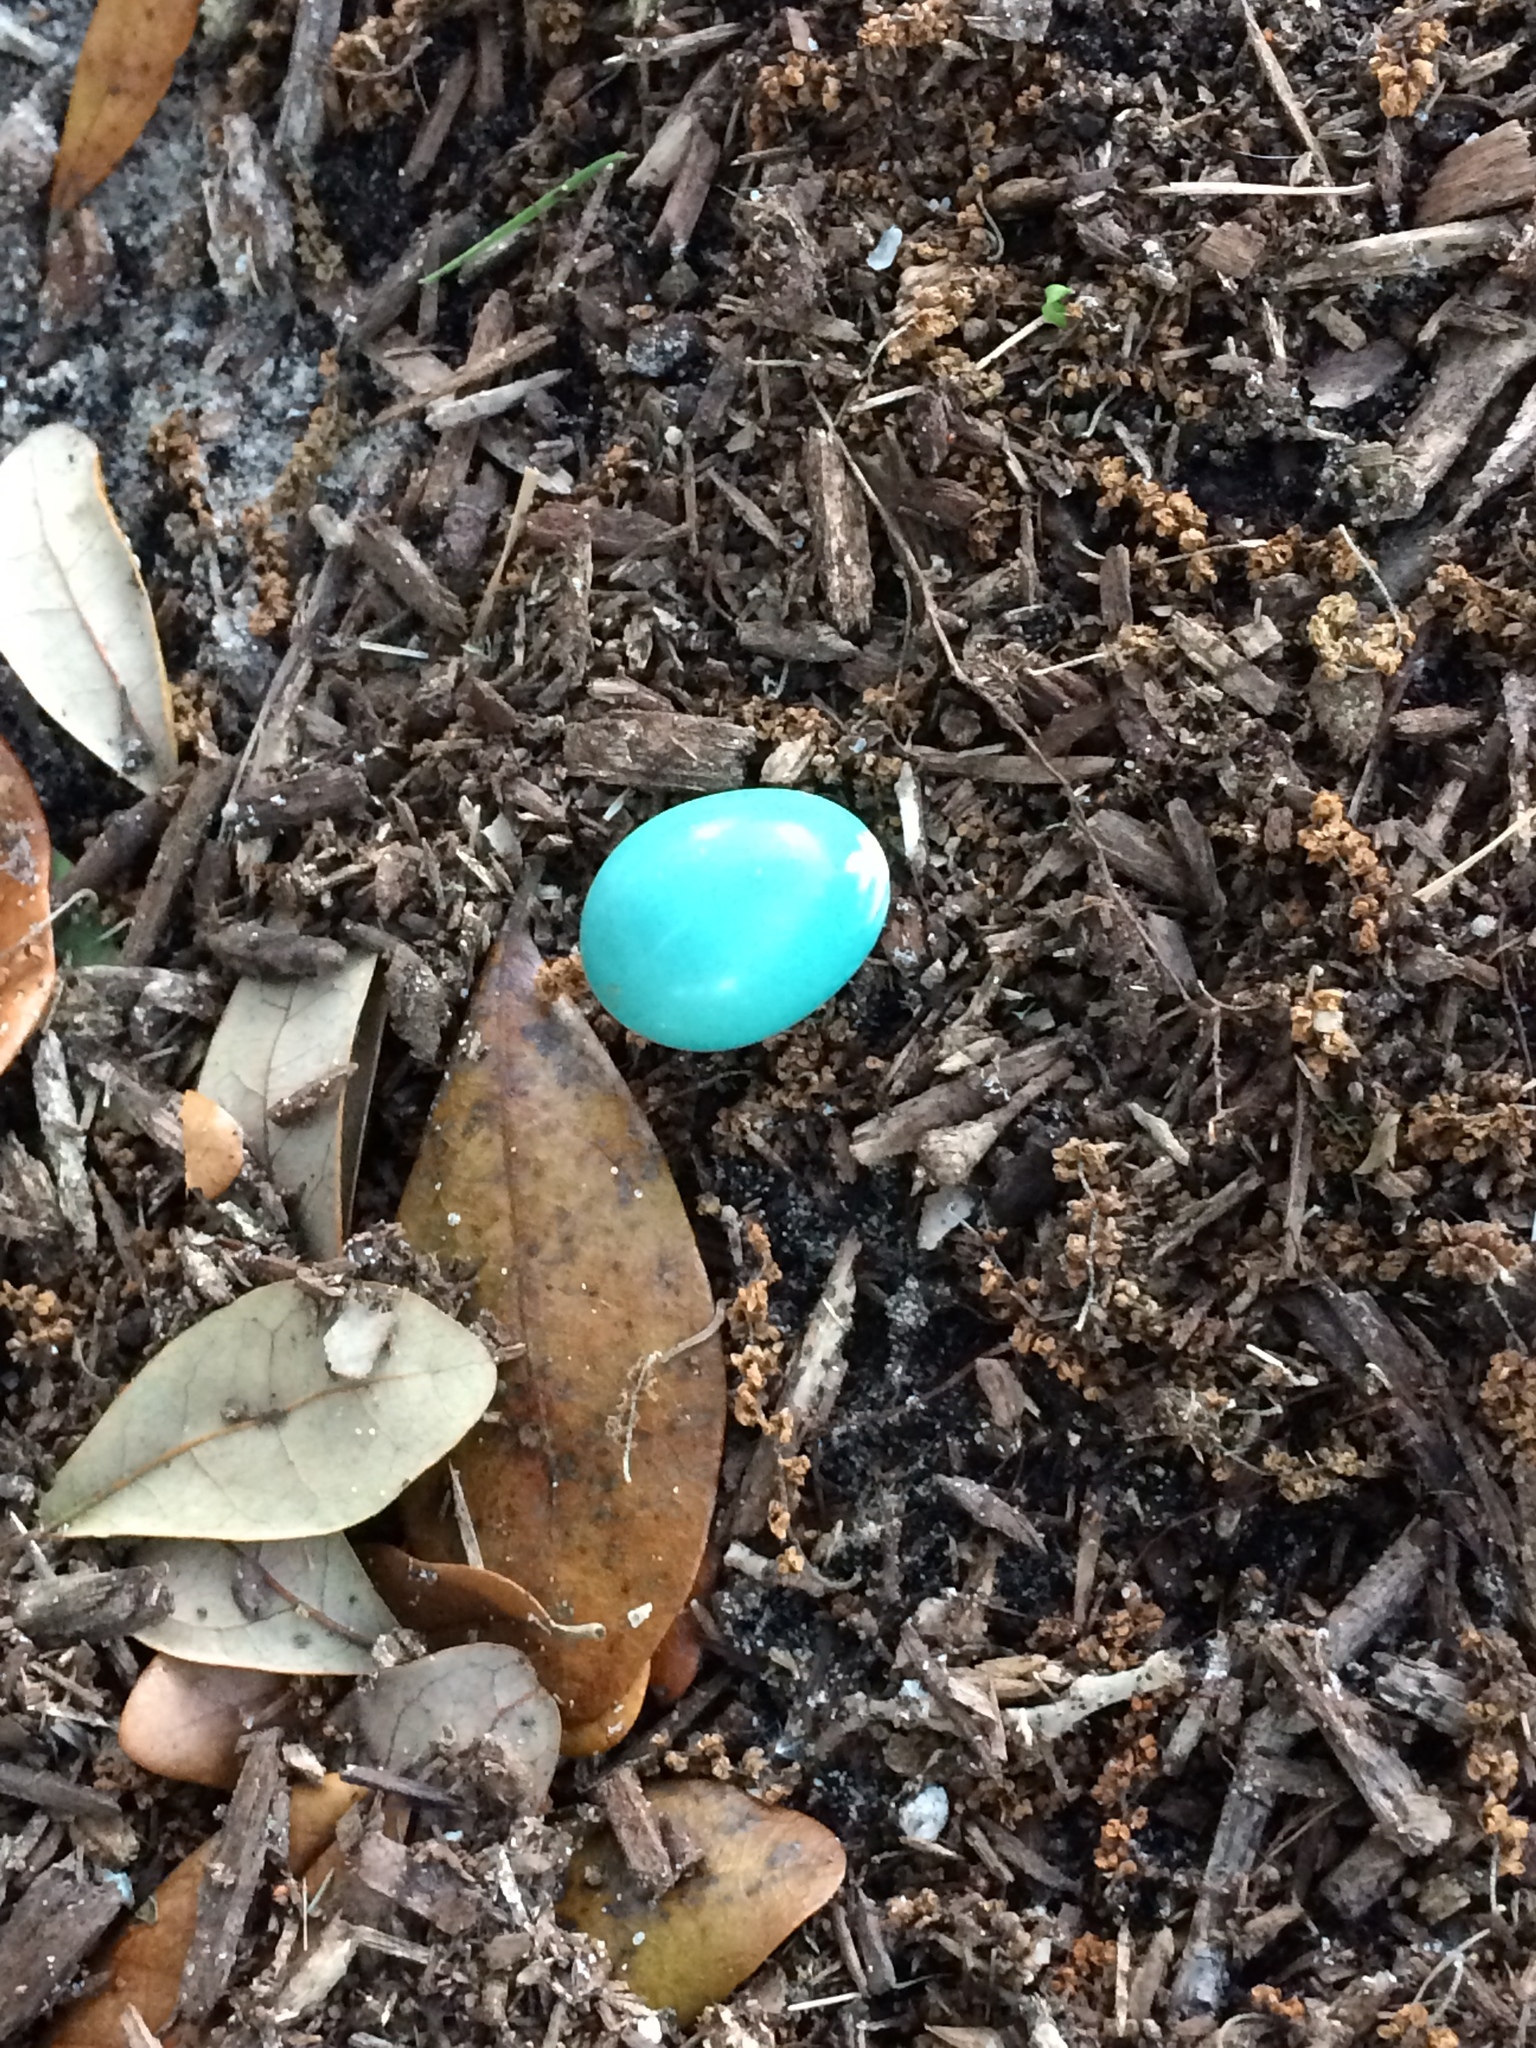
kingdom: Animalia
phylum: Chordata
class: Aves
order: Passeriformes
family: Turdidae
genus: Turdus
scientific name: Turdus migratorius
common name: American robin
